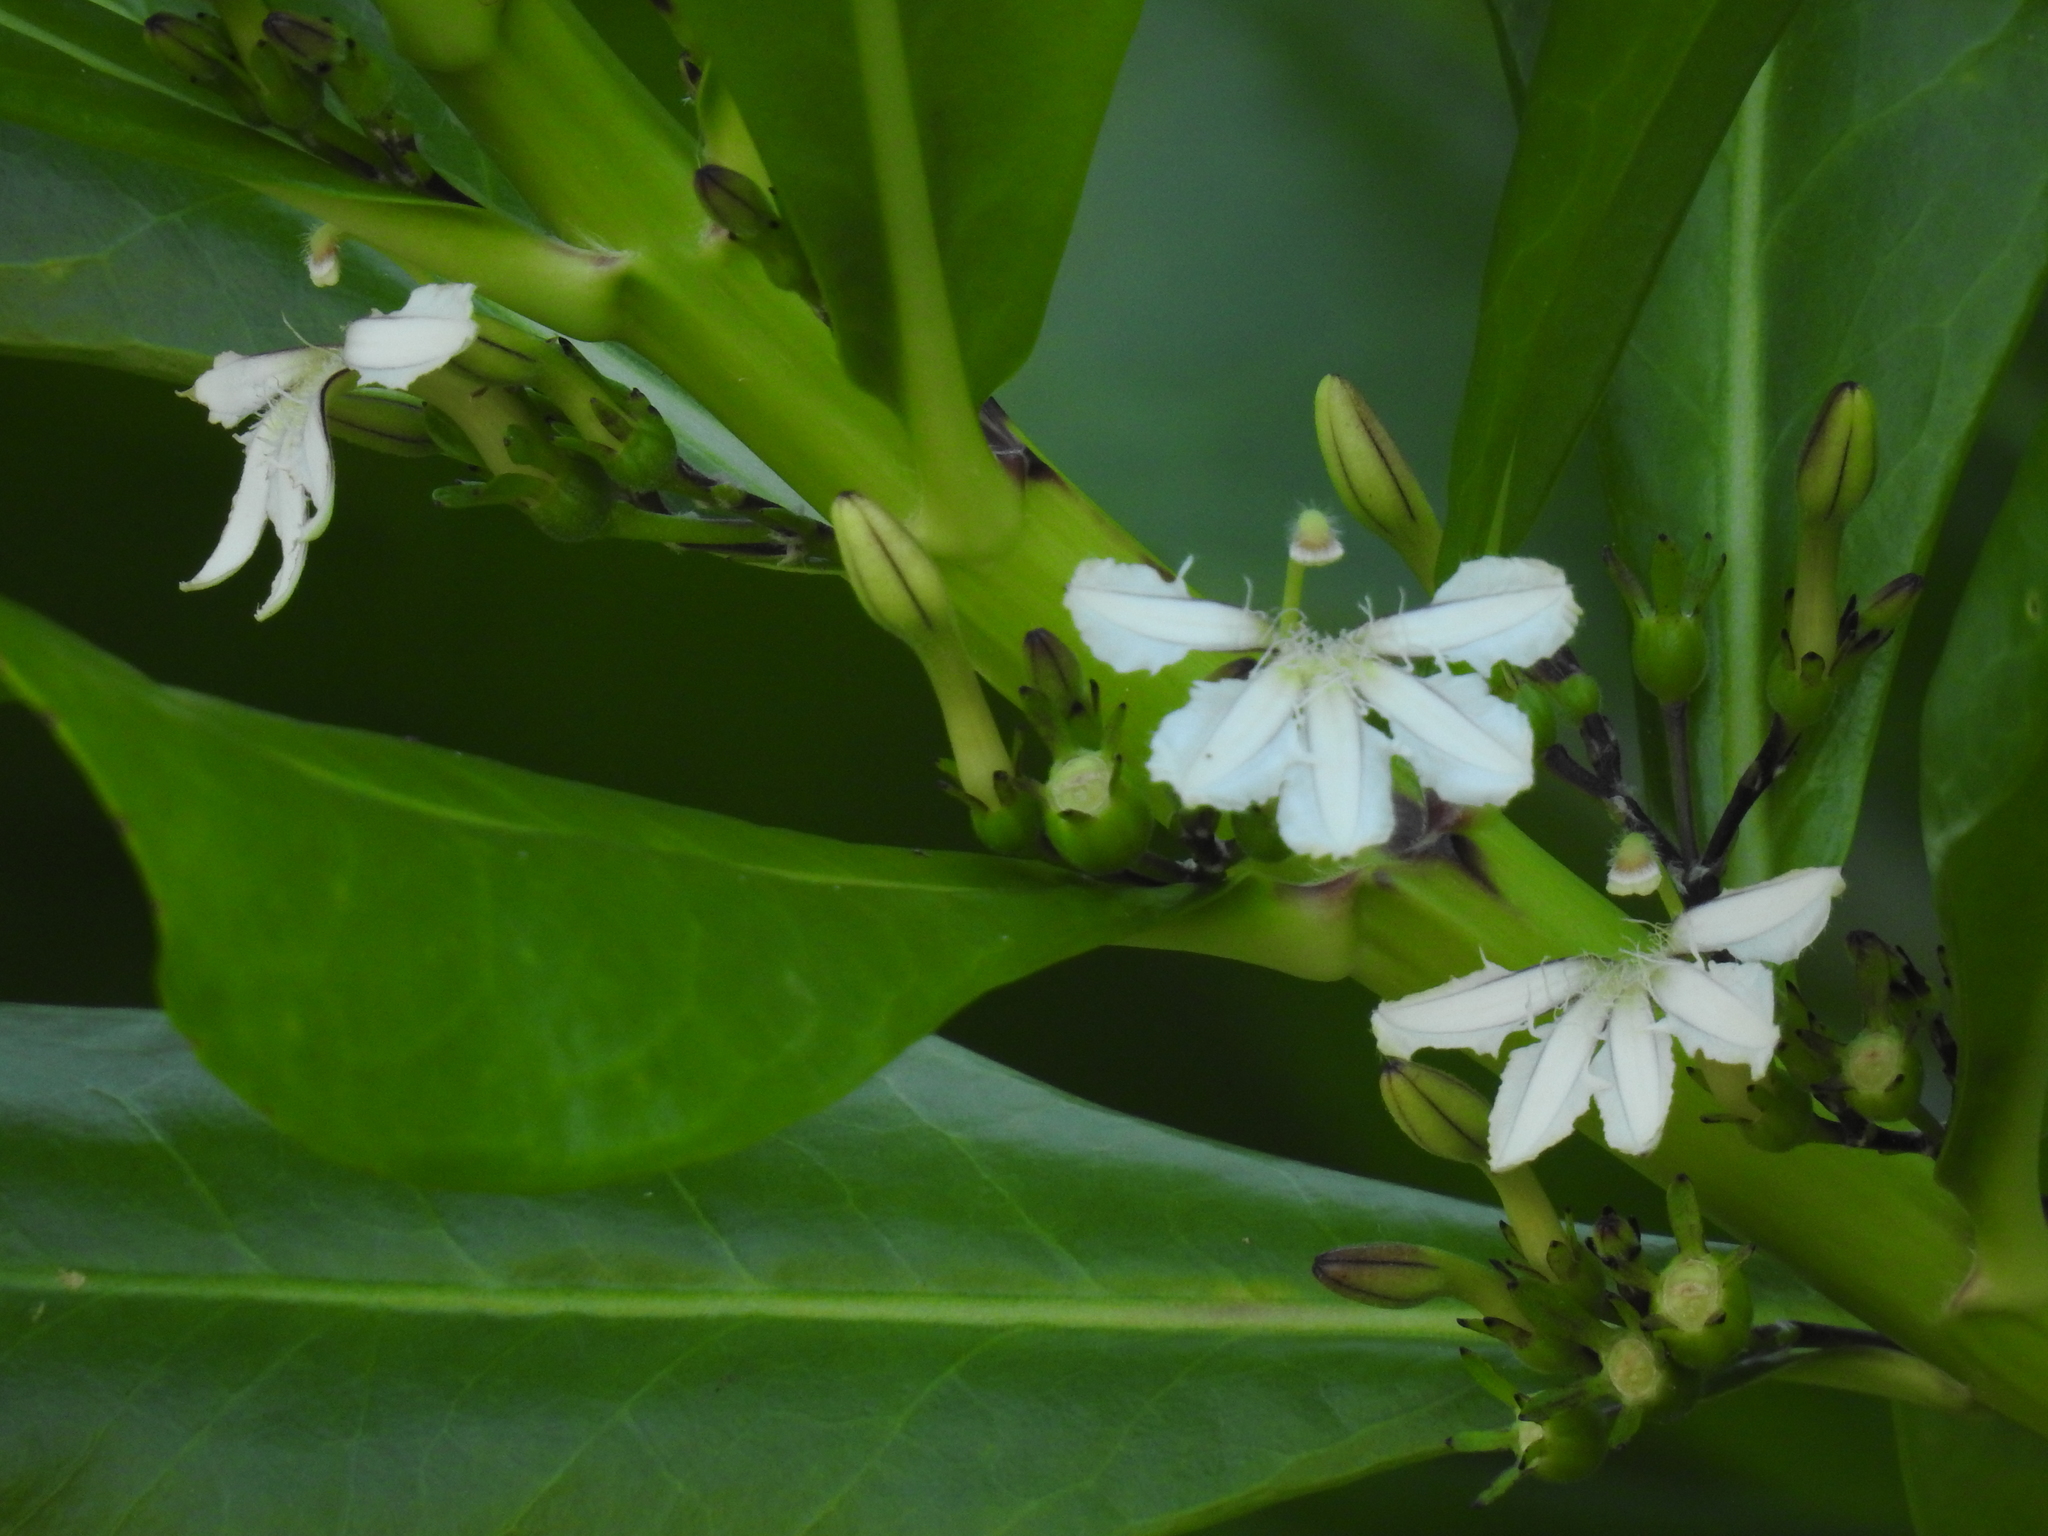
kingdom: Plantae
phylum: Tracheophyta
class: Magnoliopsida
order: Asterales
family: Goodeniaceae
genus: Scaevola
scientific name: Scaevola taccada
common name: Sea lettucetree
